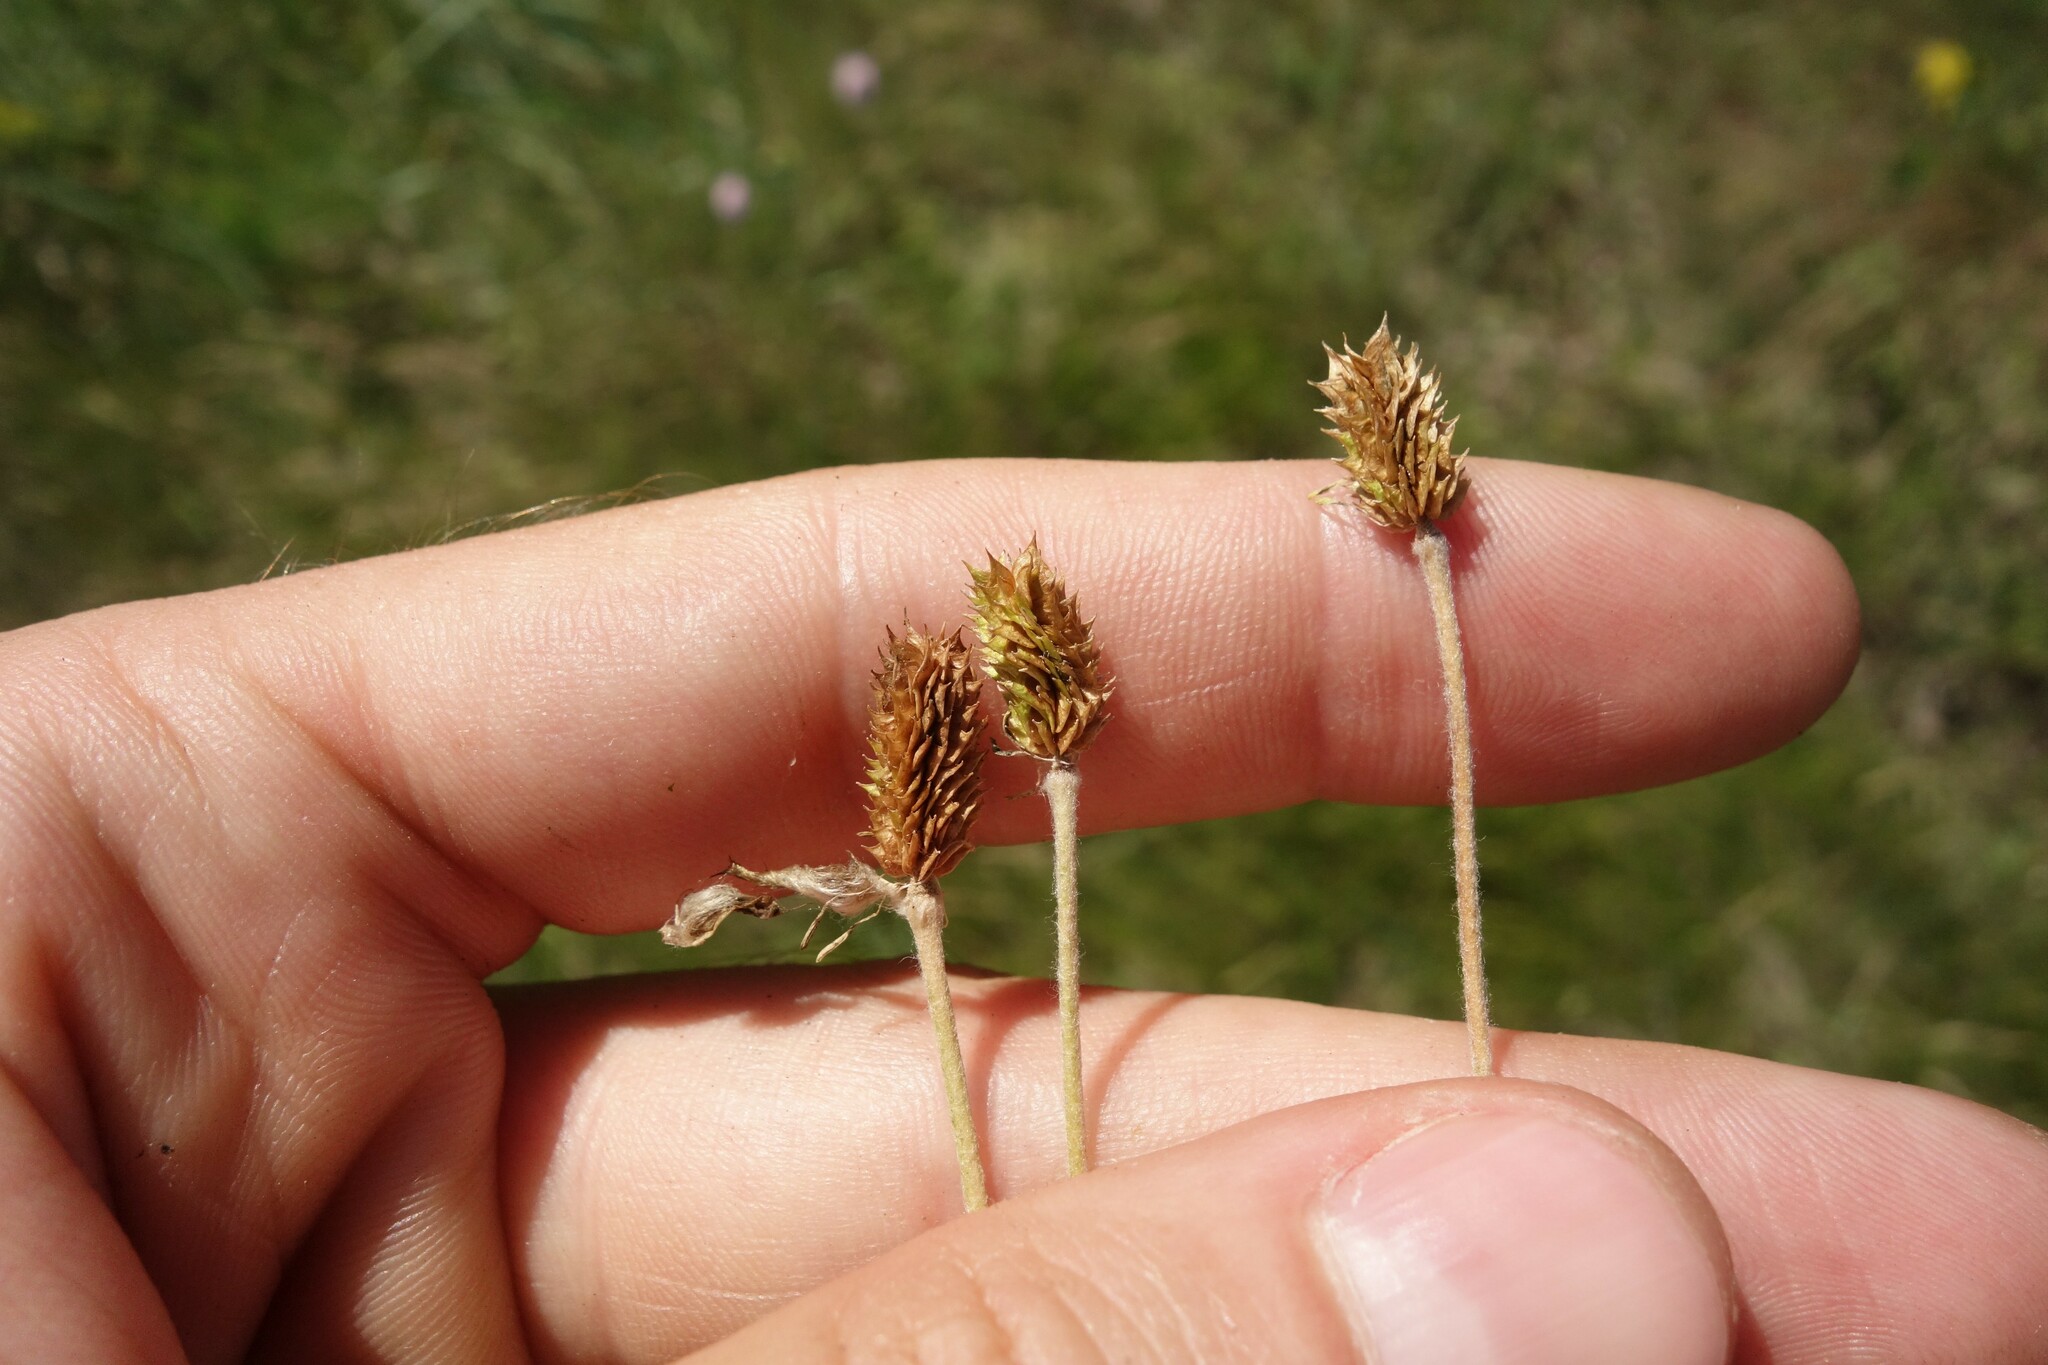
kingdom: Plantae
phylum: Tracheophyta
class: Magnoliopsida
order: Ranunculales
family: Ranunculaceae
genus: Ranunculus
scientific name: Ranunculus illyricus
